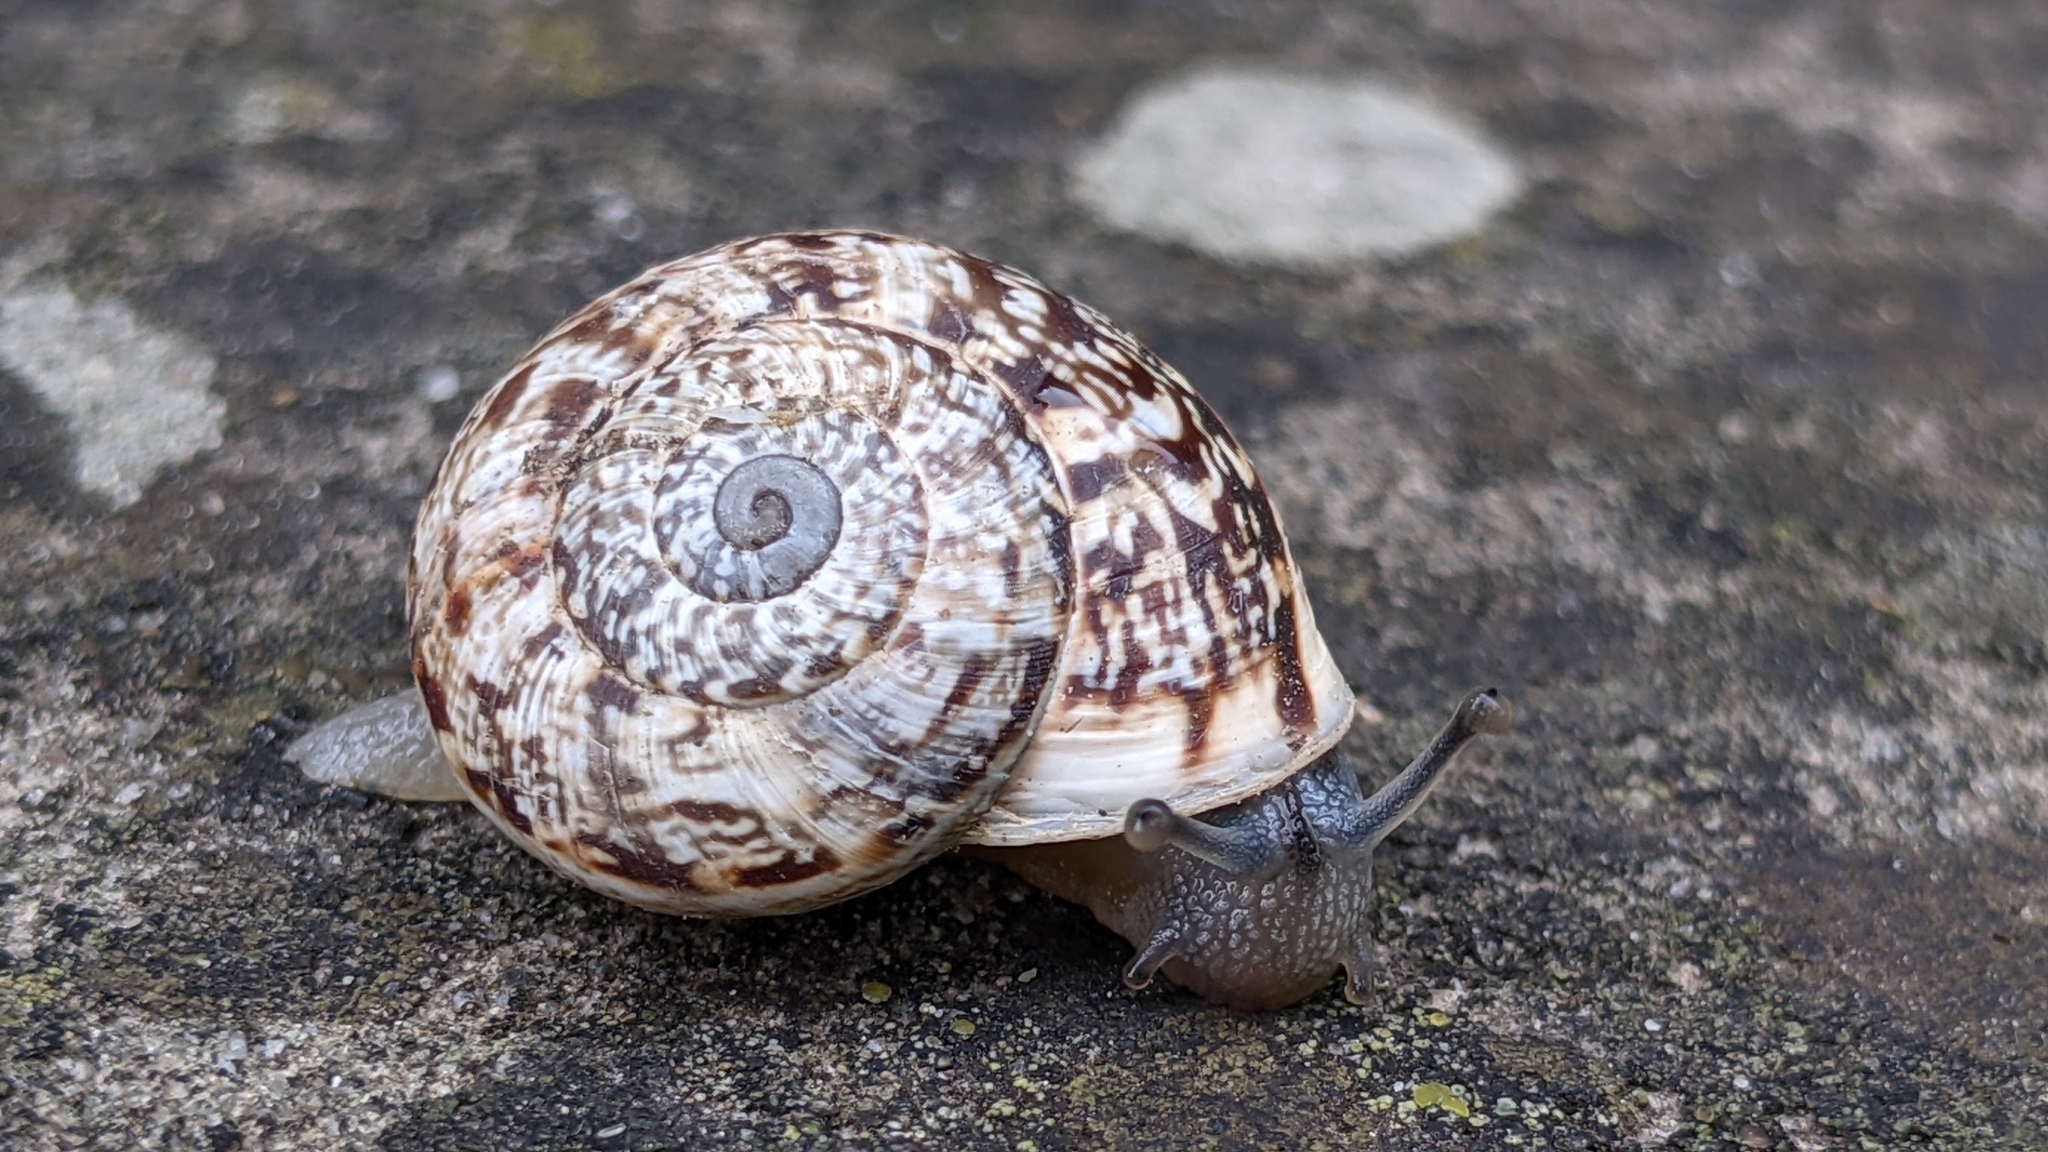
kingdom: Animalia
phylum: Mollusca
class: Gastropoda
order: Stylommatophora
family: Helicidae
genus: Marmorana
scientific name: Marmorana serpentina
